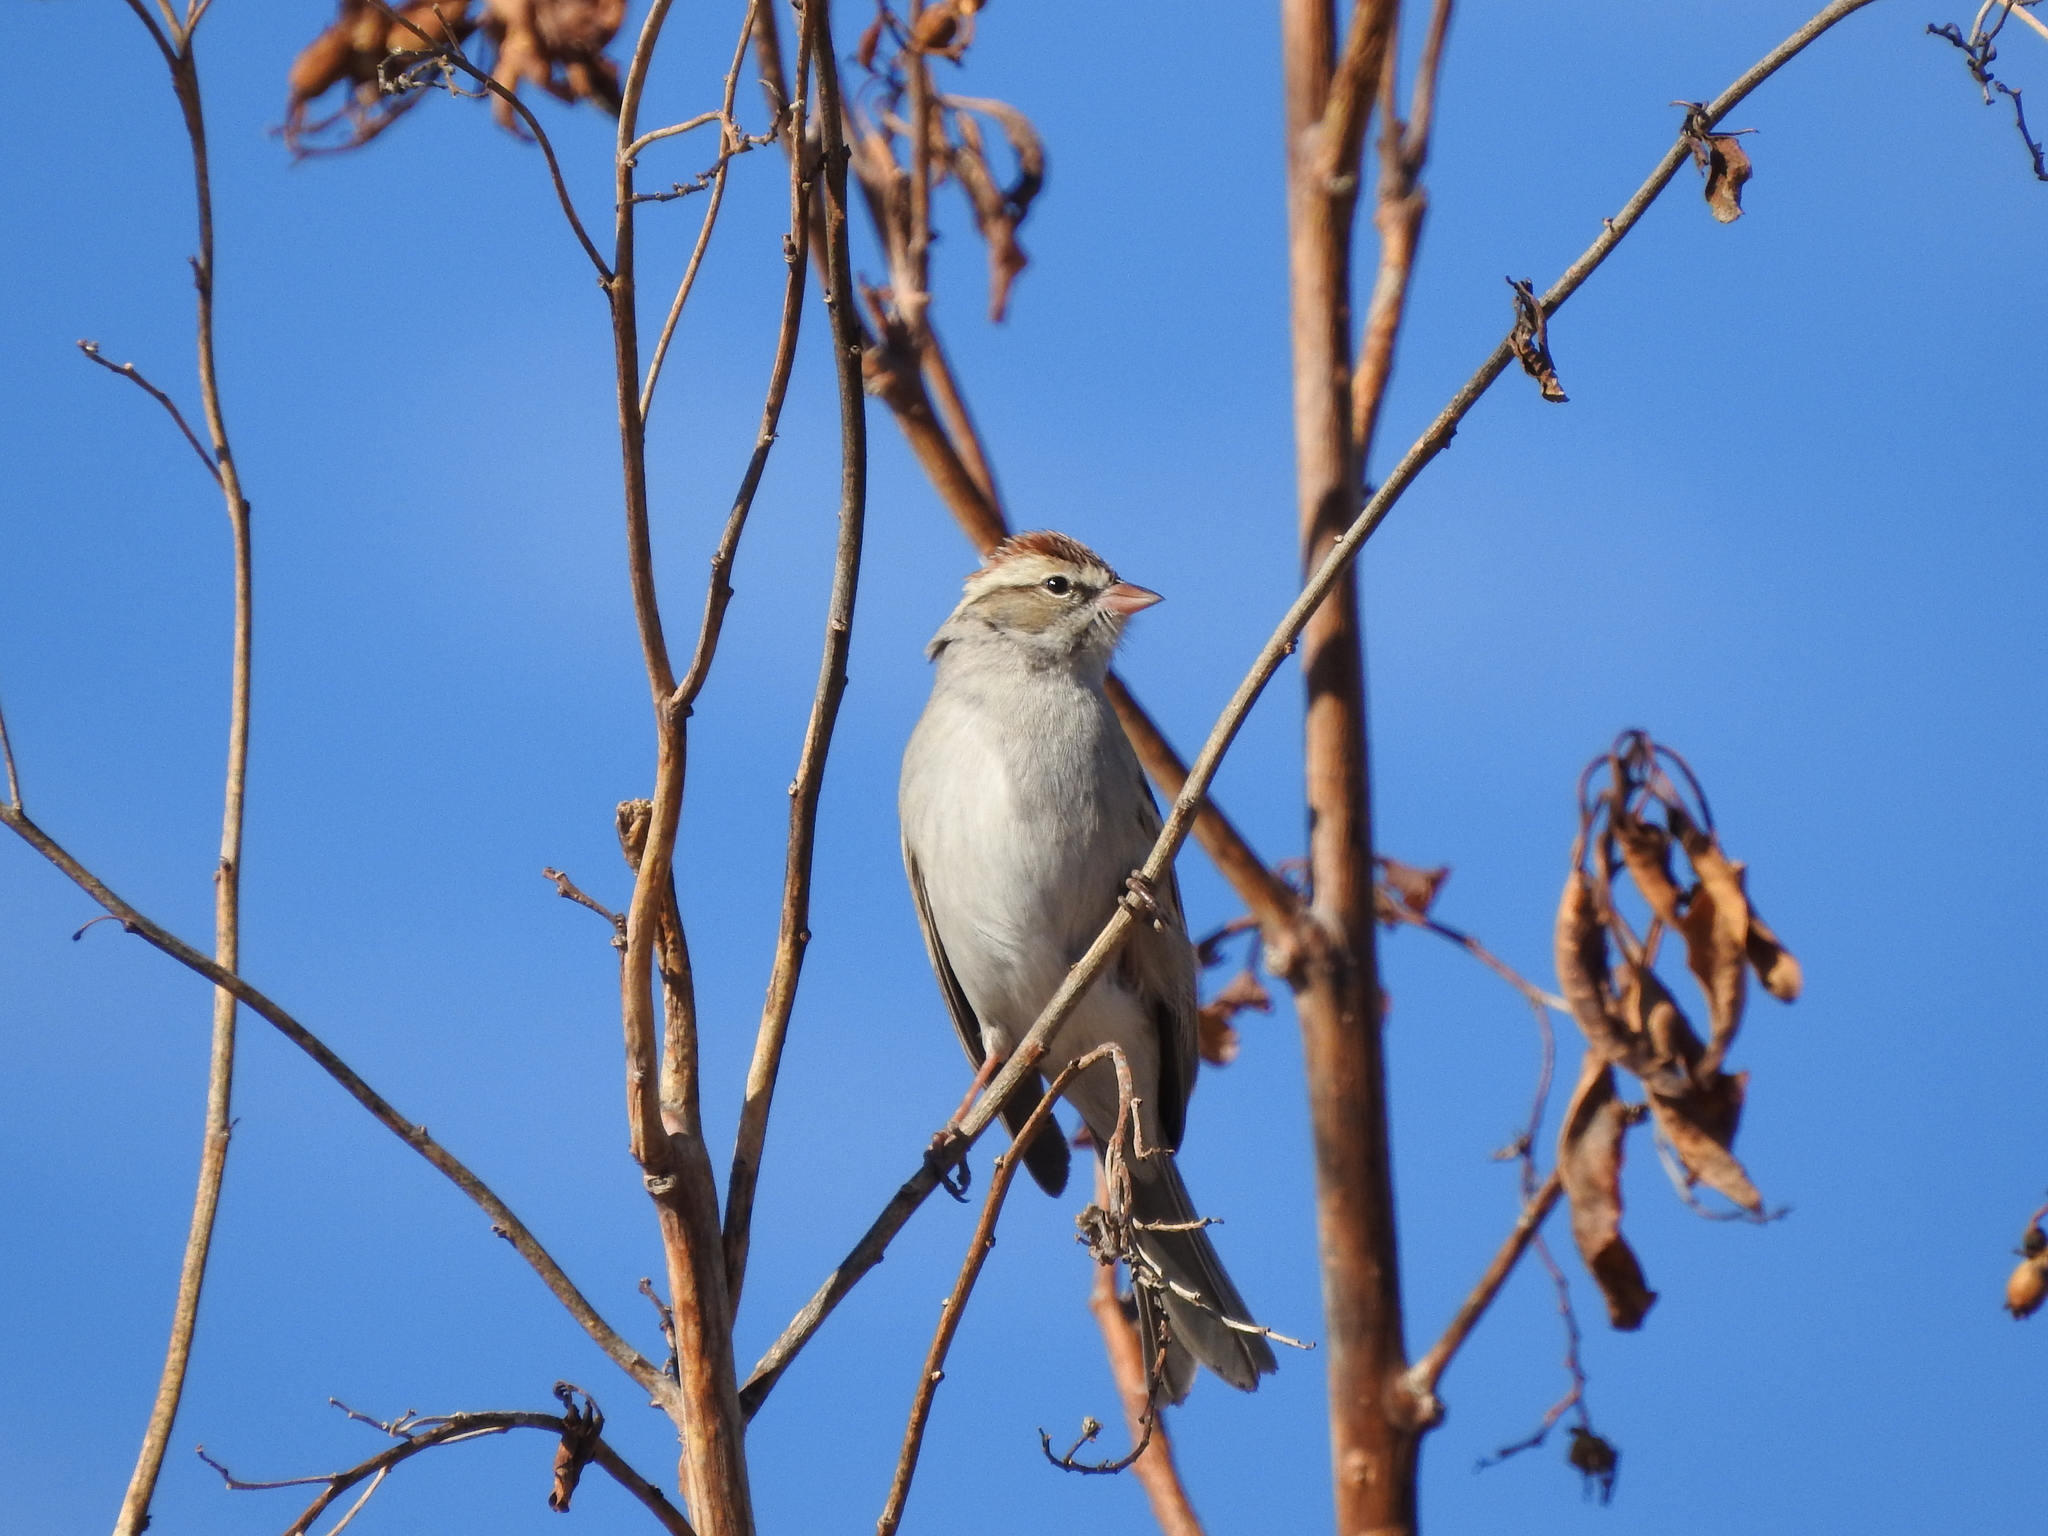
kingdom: Animalia
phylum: Chordata
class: Aves
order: Passeriformes
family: Passerellidae
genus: Spizella
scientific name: Spizella passerina
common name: Chipping sparrow
